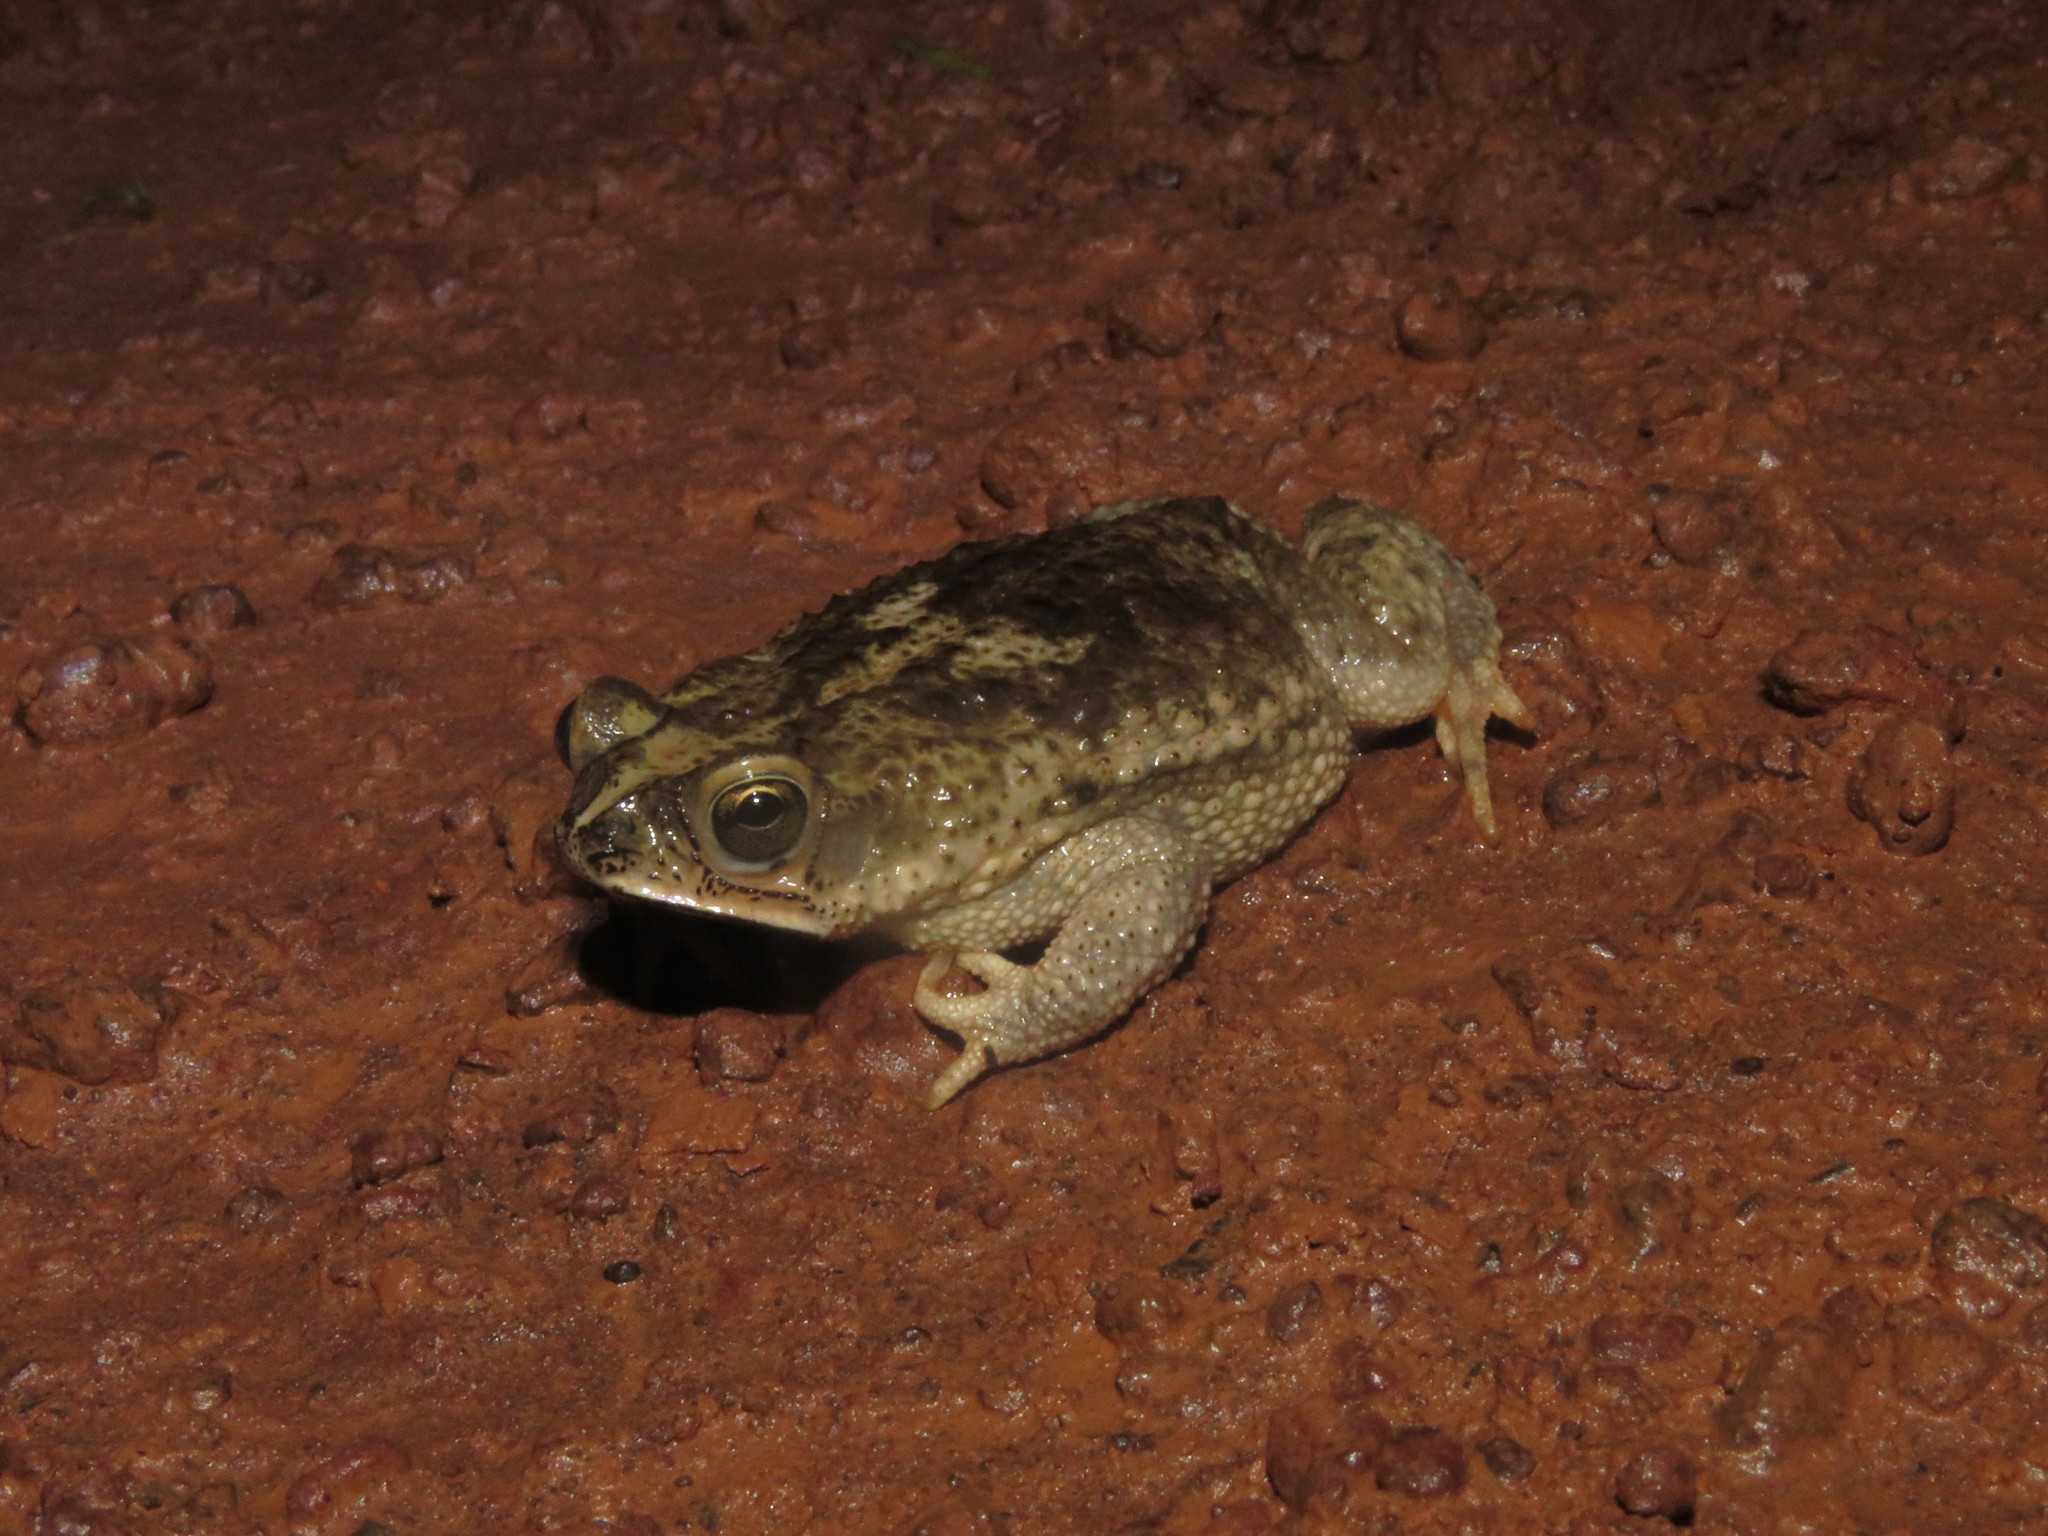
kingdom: Animalia
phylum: Chordata
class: Amphibia
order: Anura
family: Bufonidae
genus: Rhinella
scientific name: Rhinella major
